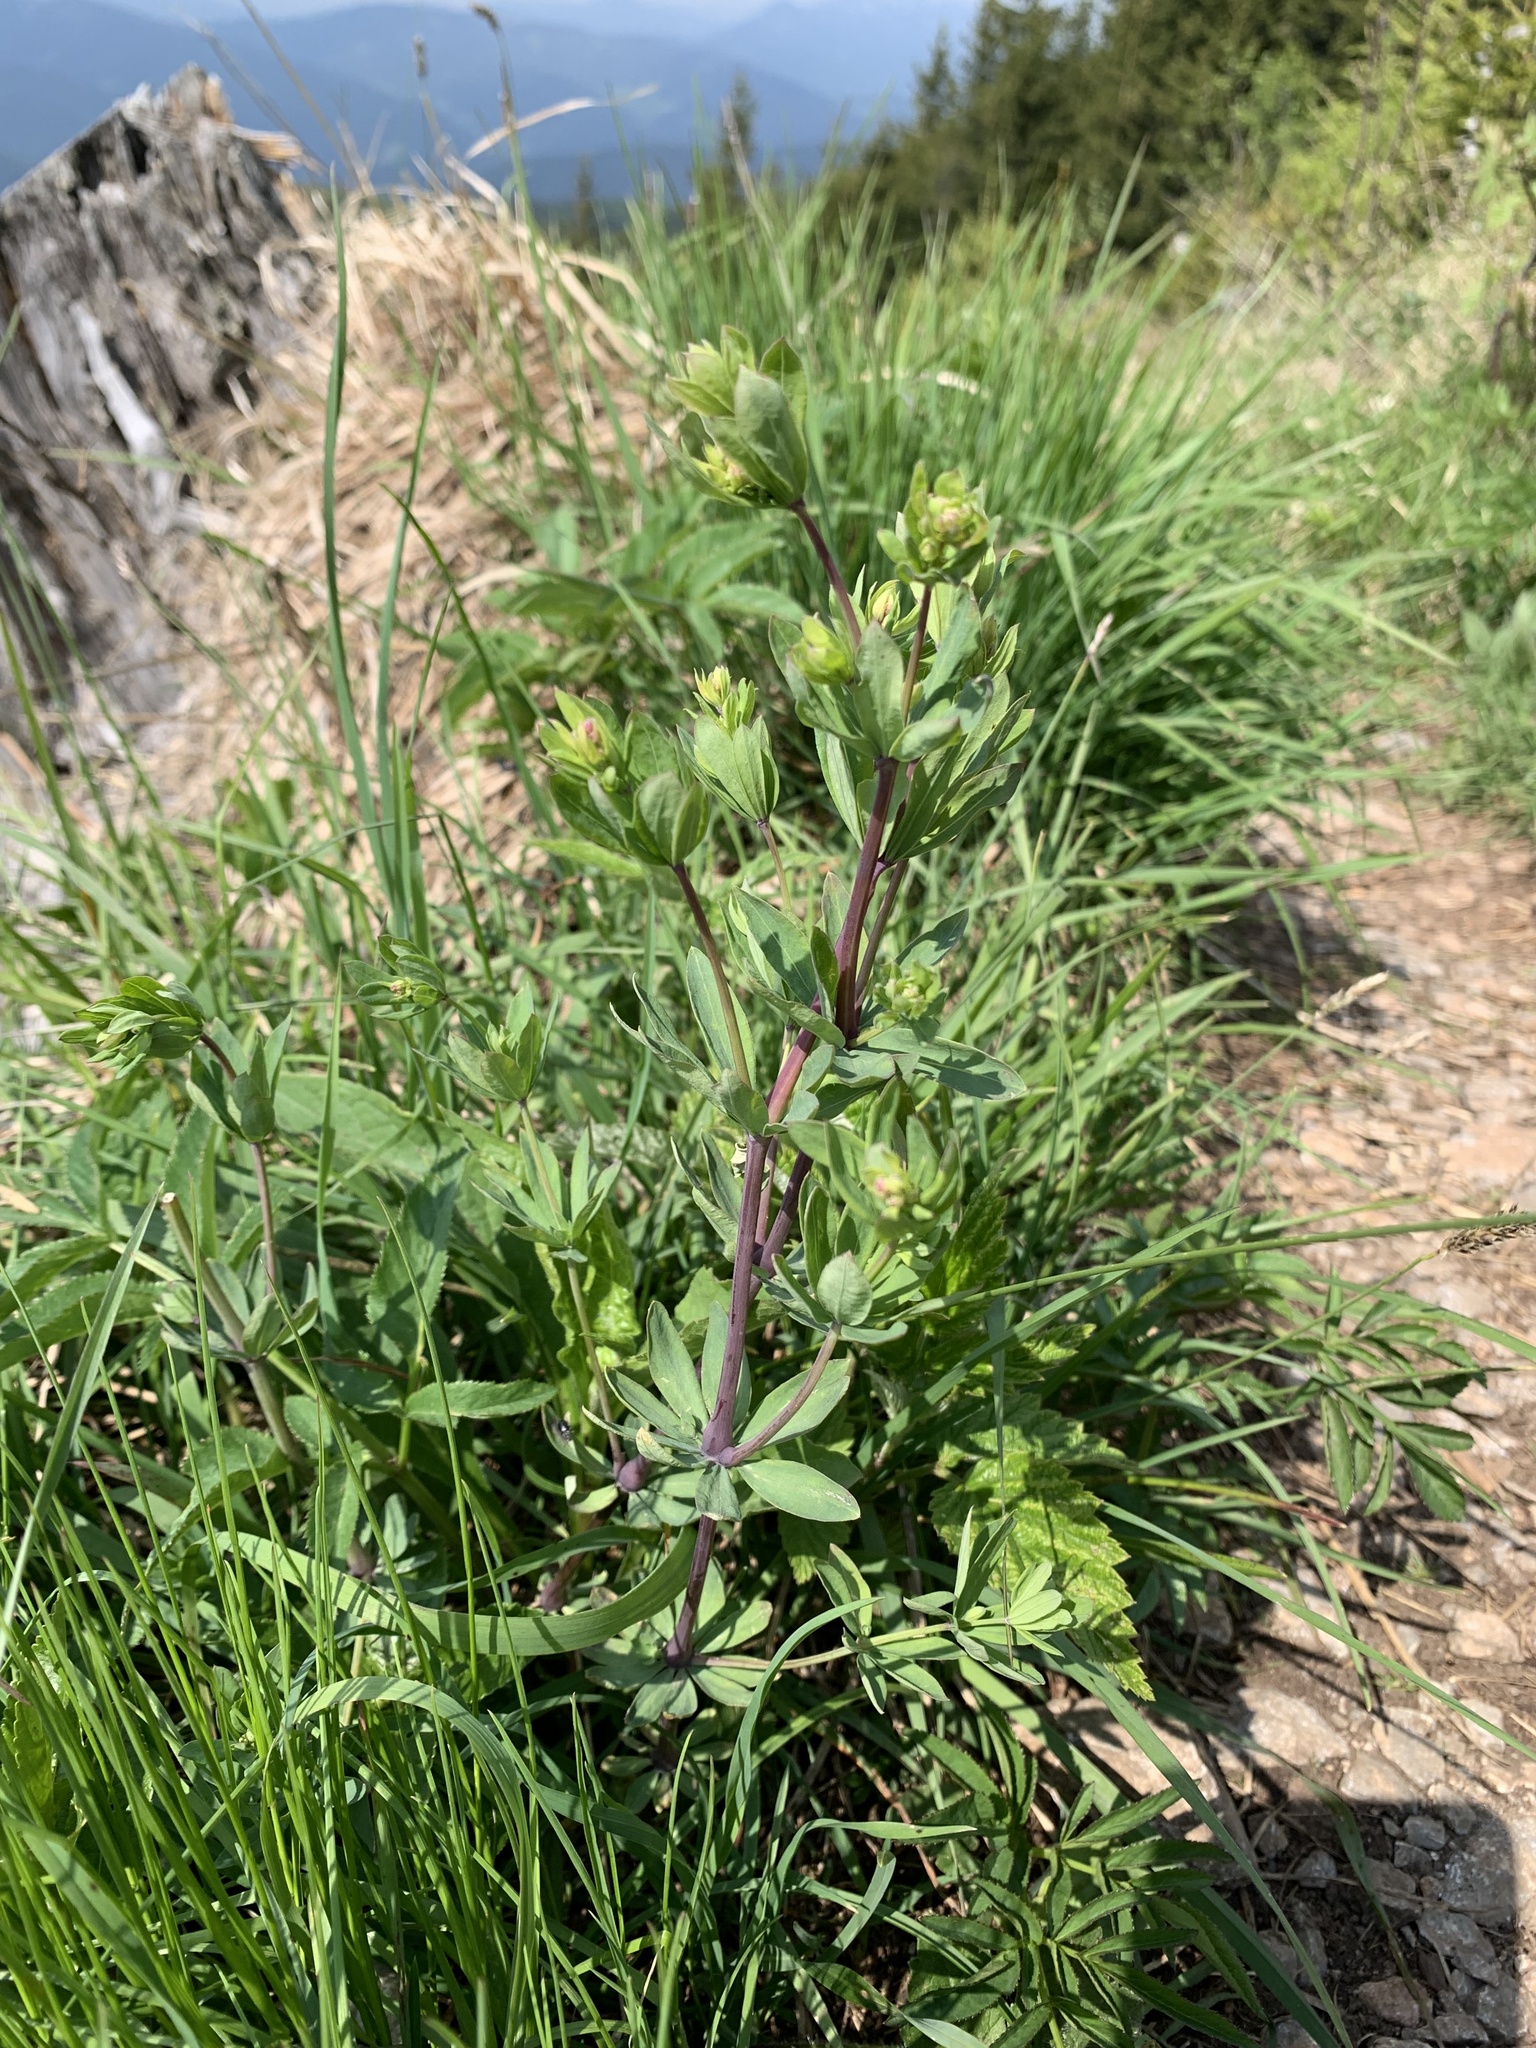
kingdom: Plantae
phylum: Tracheophyta
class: Magnoliopsida
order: Gentianales
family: Rubiaceae
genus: Galium
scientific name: Galium sylvaticum
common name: Wood bedstraw
